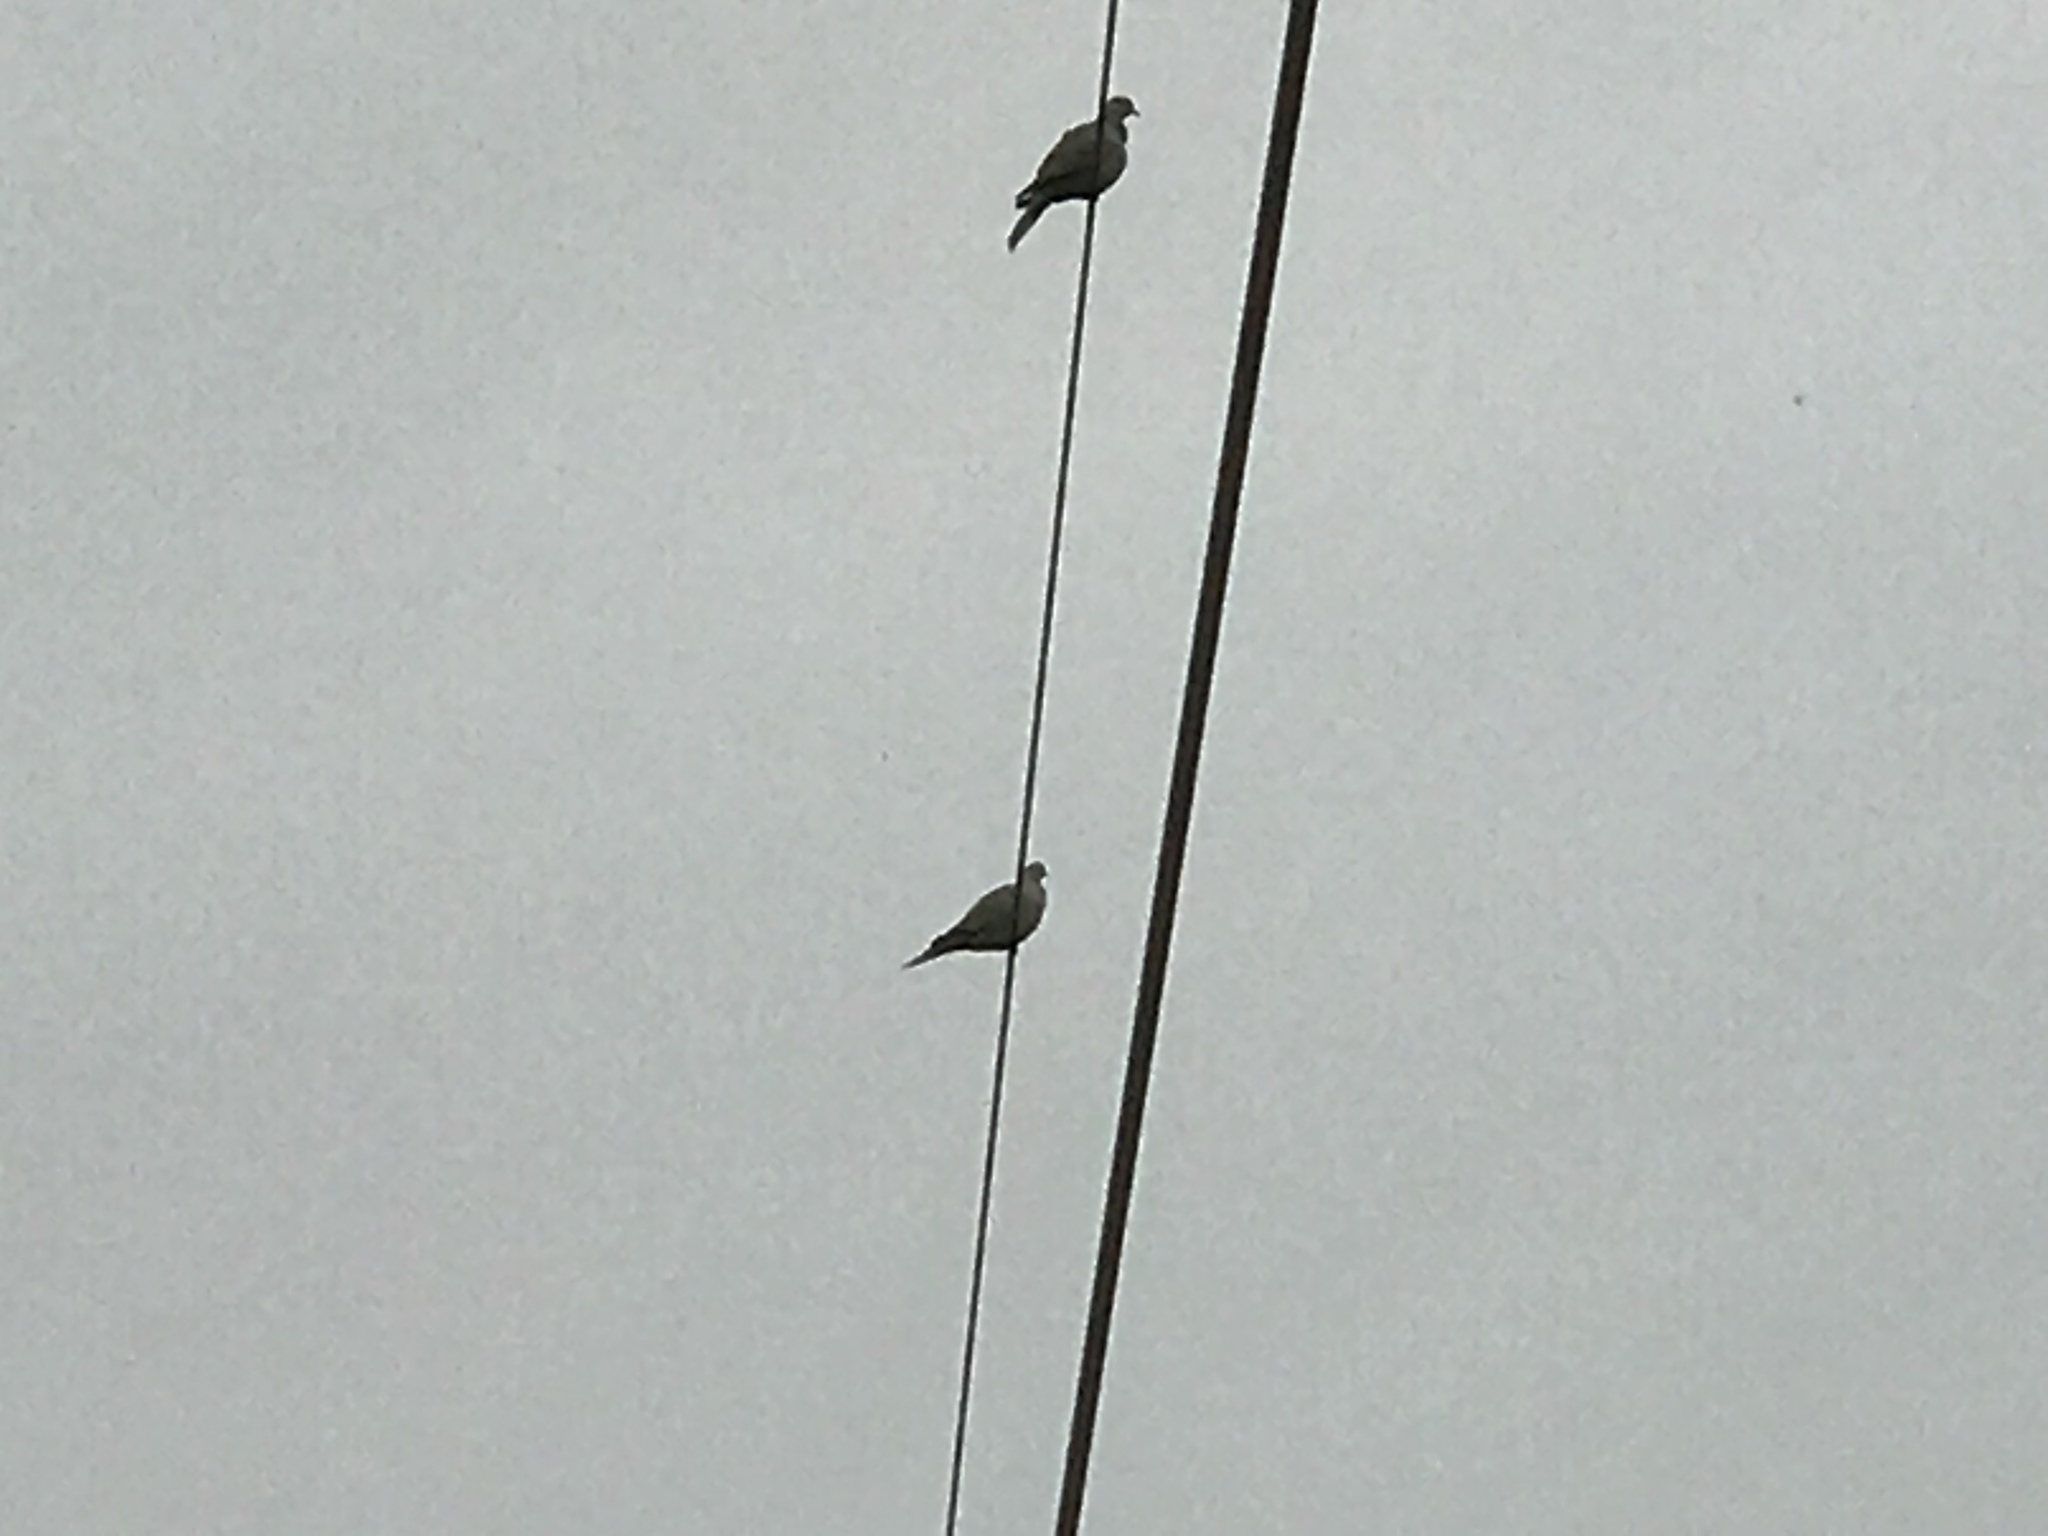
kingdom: Animalia
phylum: Chordata
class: Aves
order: Columbiformes
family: Columbidae
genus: Zenaida
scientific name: Zenaida macroura
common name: Mourning dove
